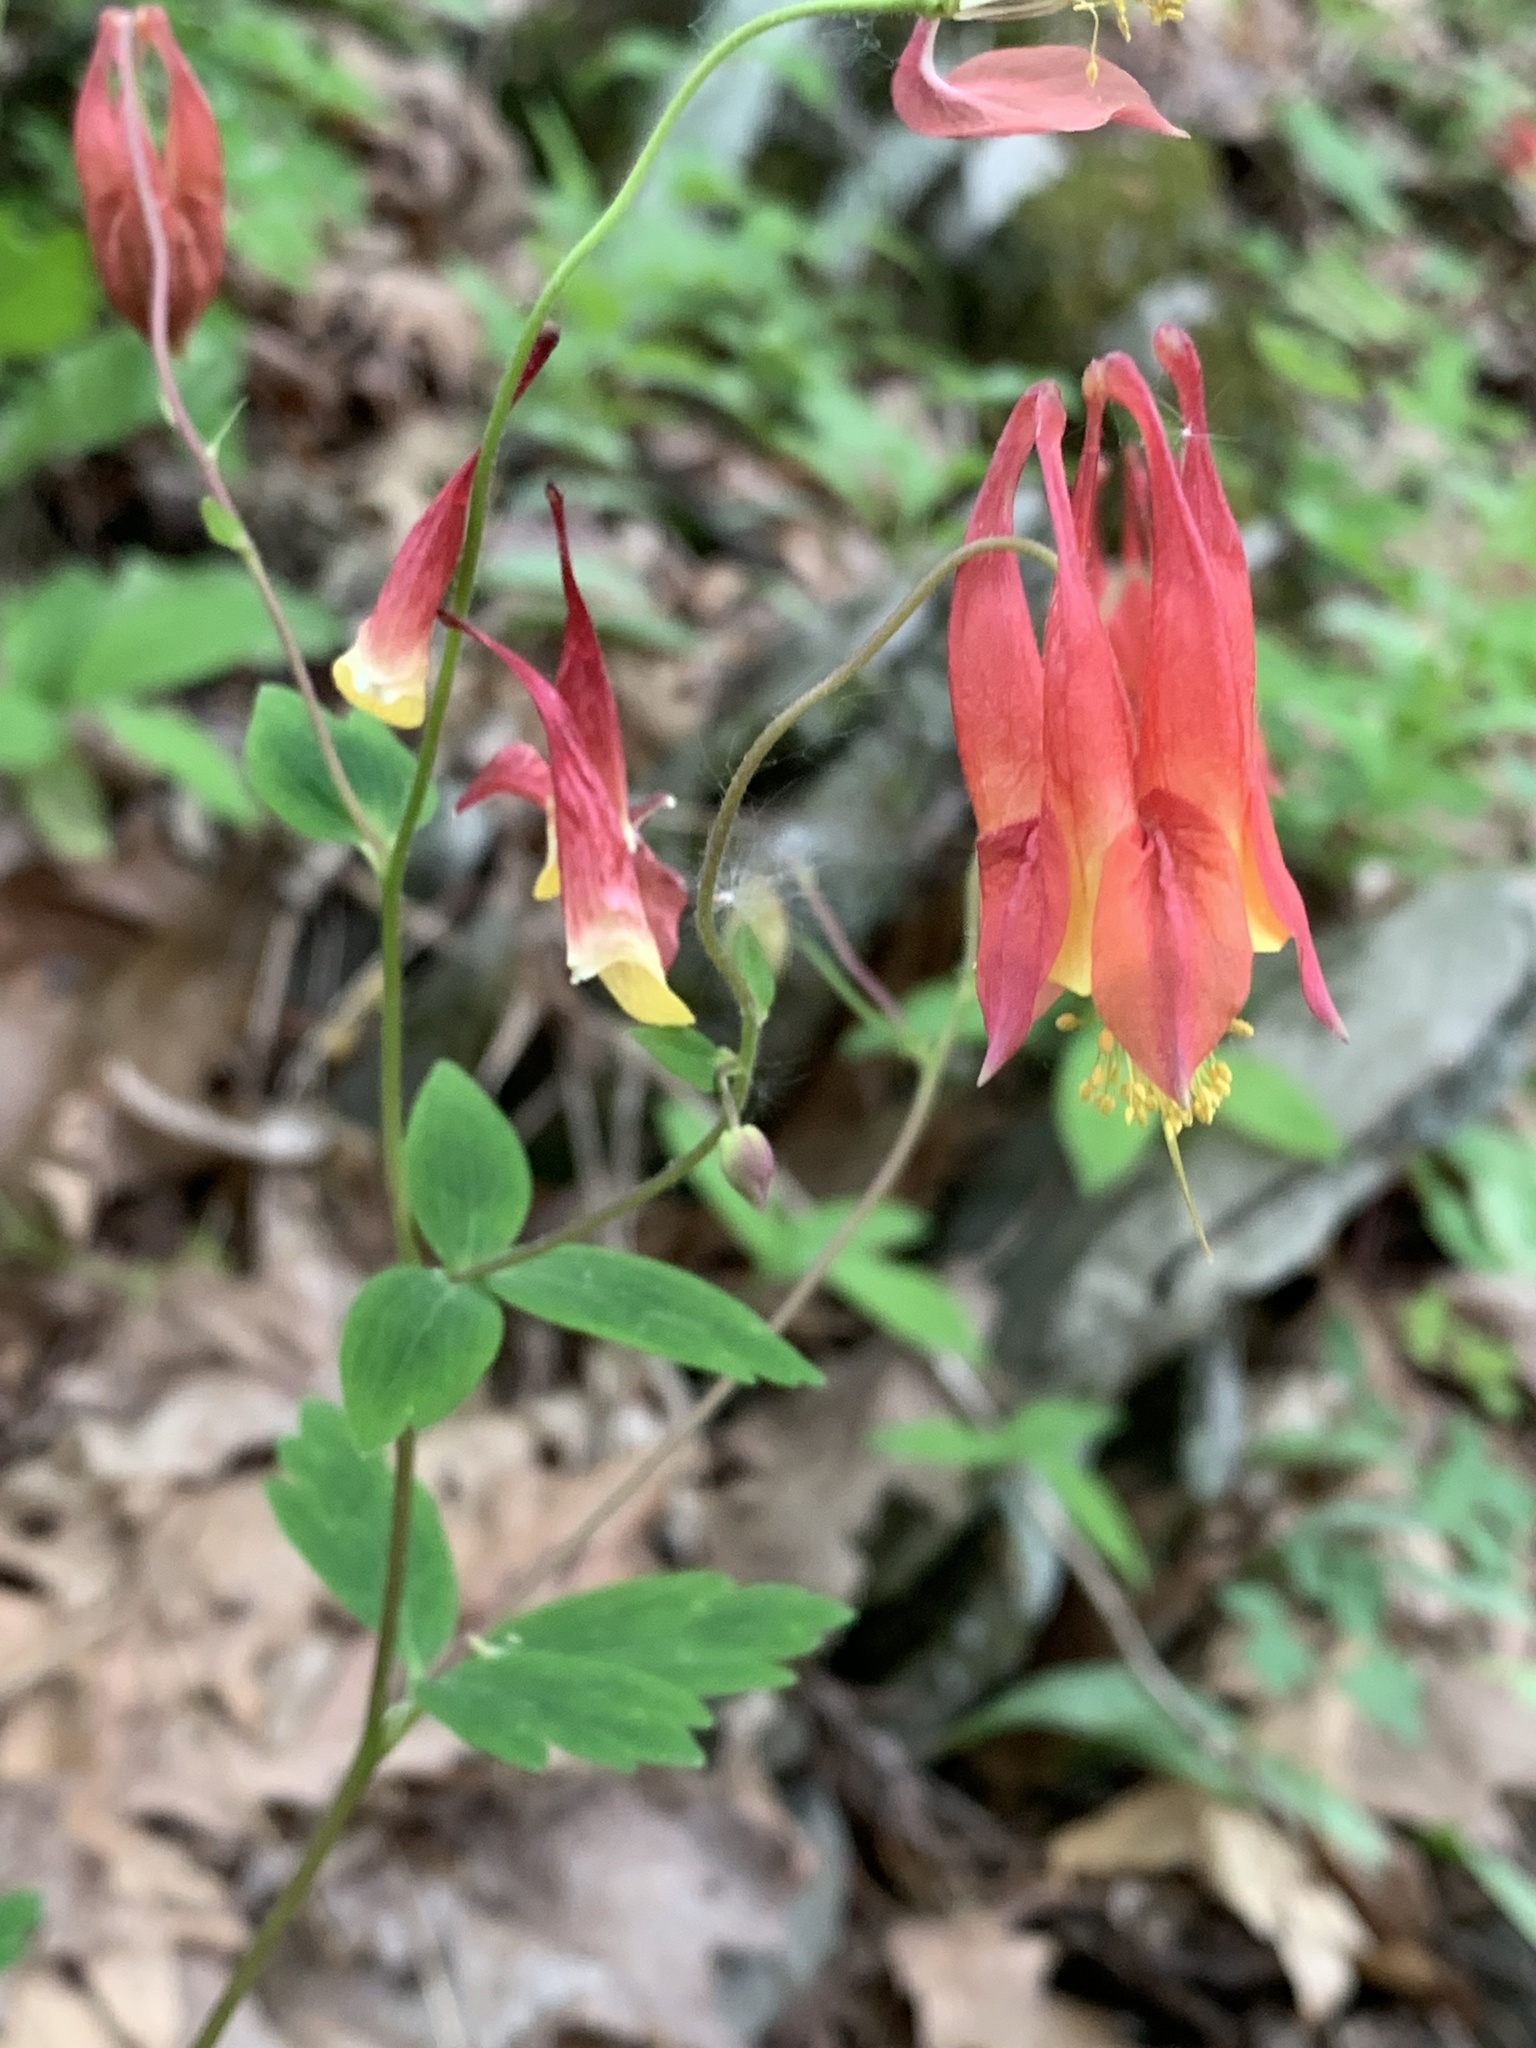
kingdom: Plantae
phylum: Tracheophyta
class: Magnoliopsida
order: Ranunculales
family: Ranunculaceae
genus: Aquilegia
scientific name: Aquilegia canadensis
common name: American columbine
